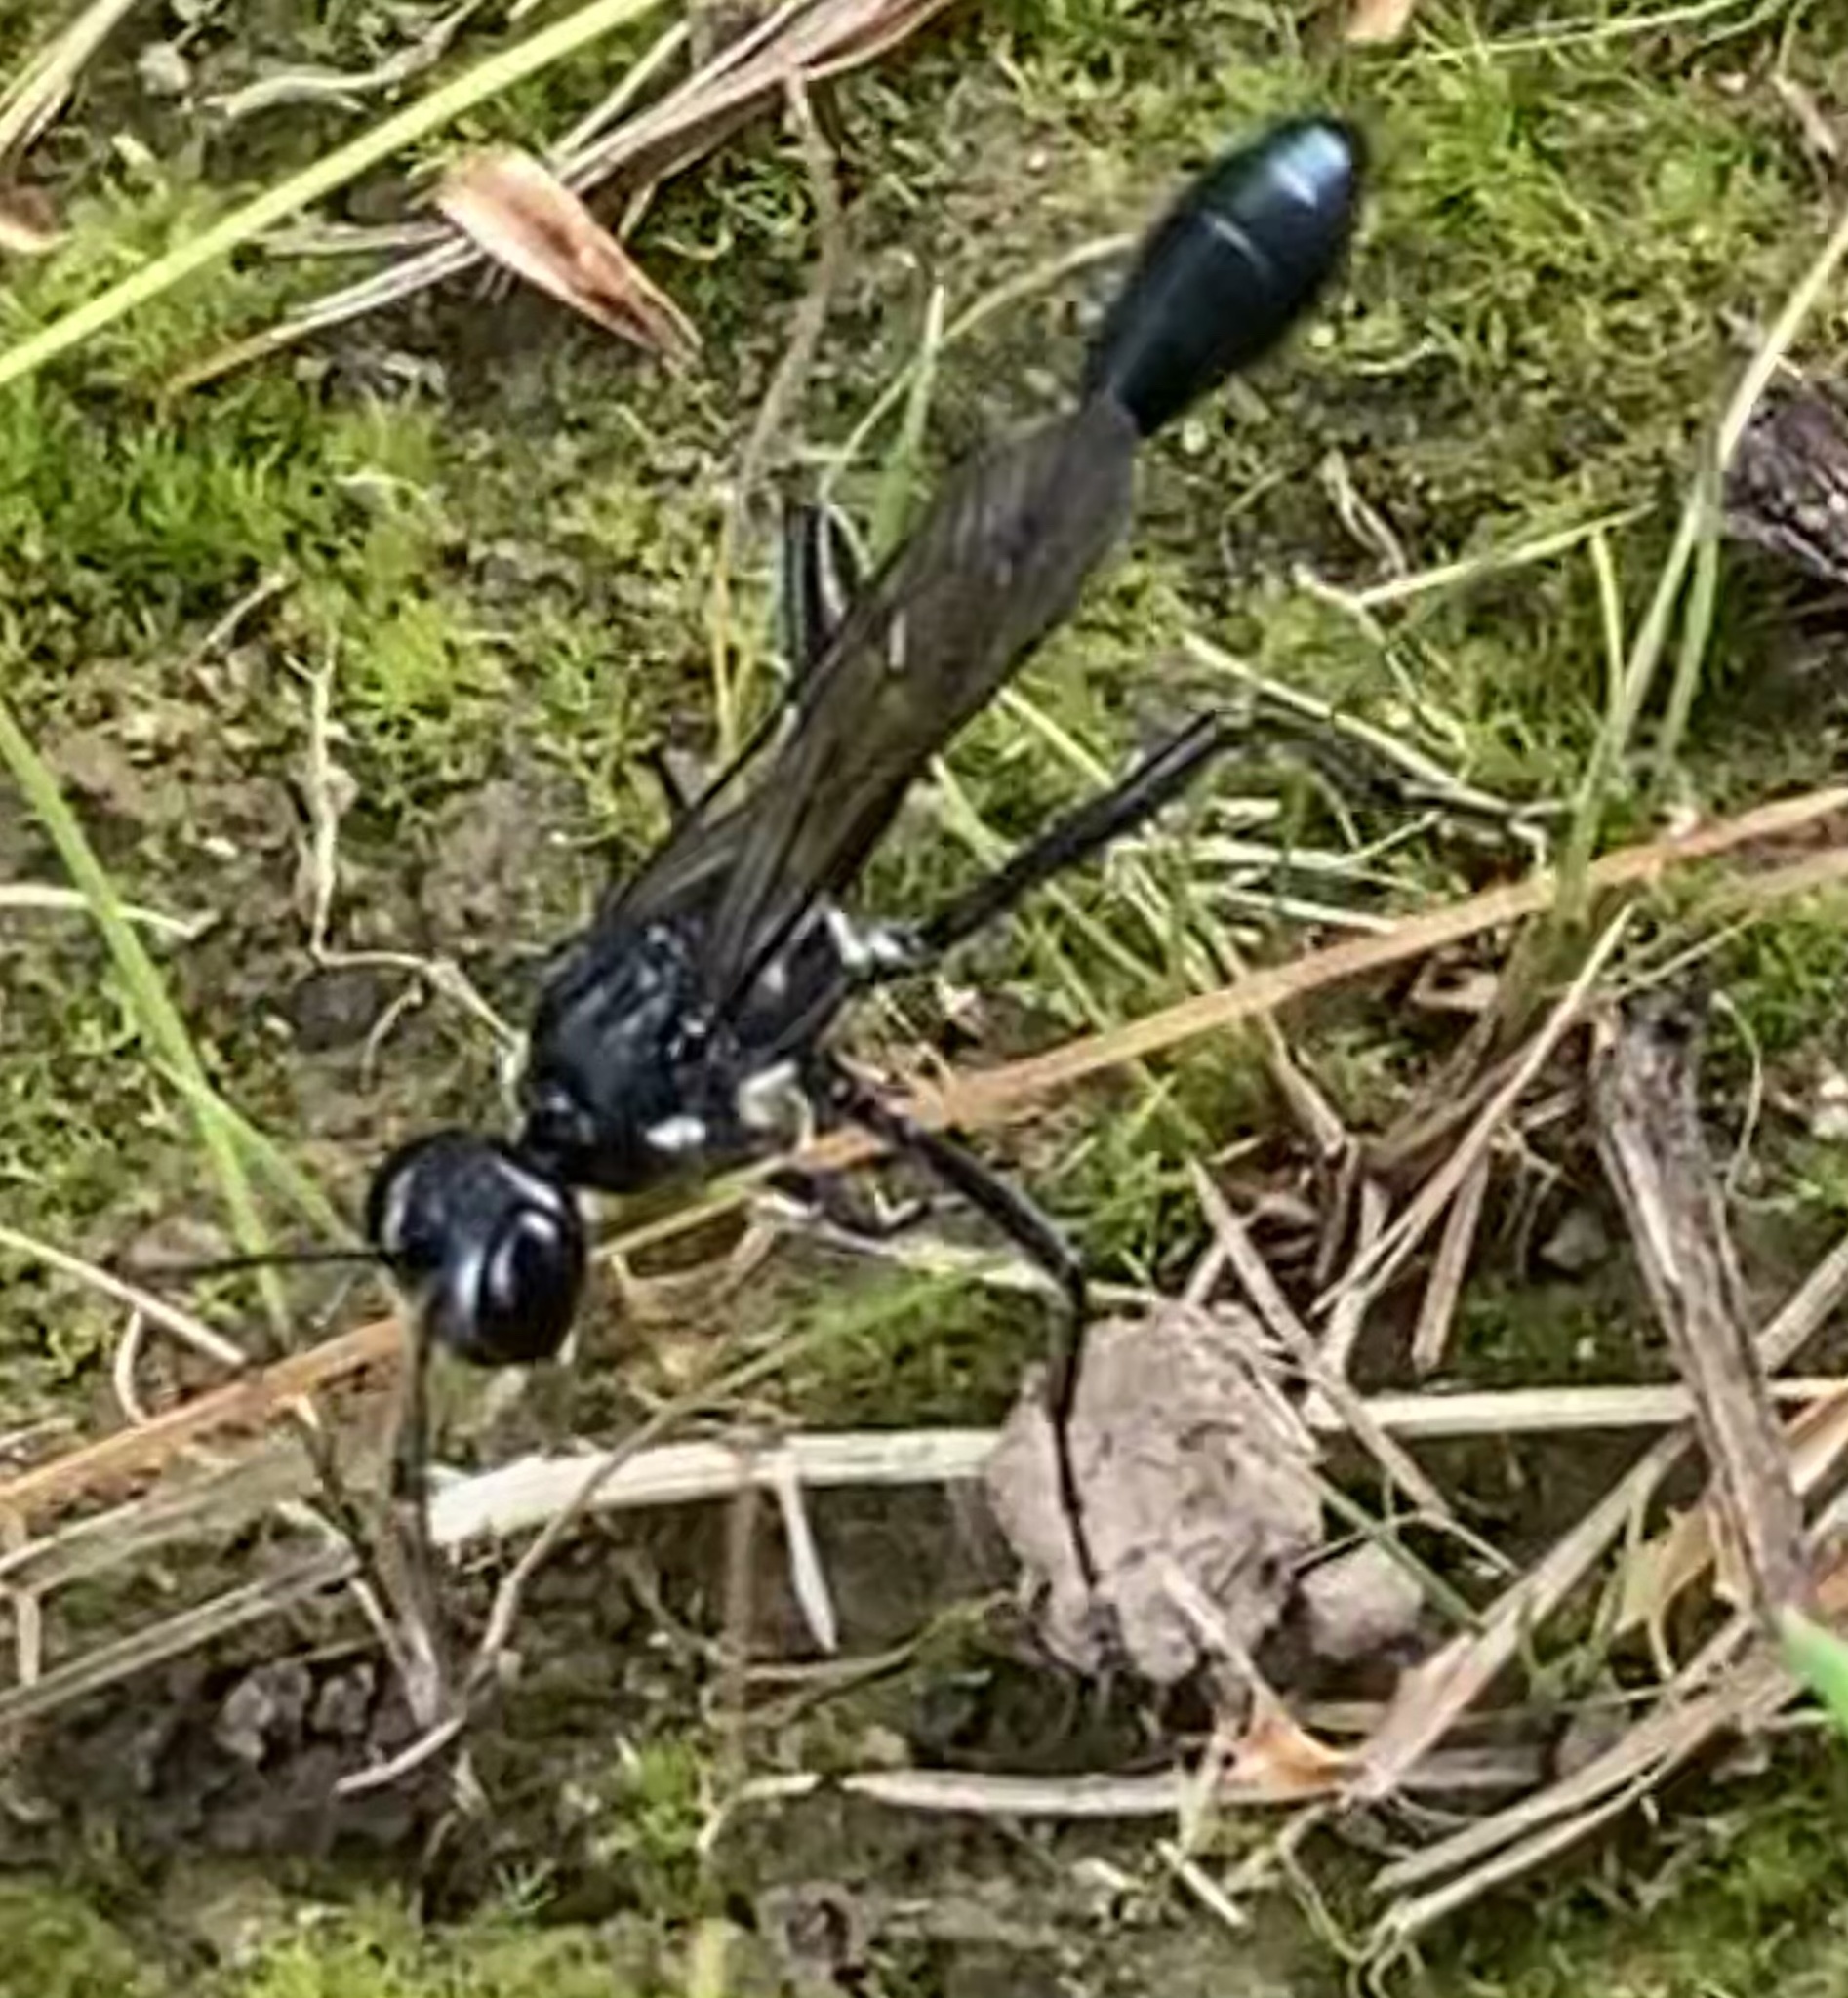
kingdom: Animalia
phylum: Arthropoda
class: Insecta
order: Hymenoptera
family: Sphecidae
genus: Eremnophila
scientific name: Eremnophila aureonotata
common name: Gold-marked thread-waisted wasp
